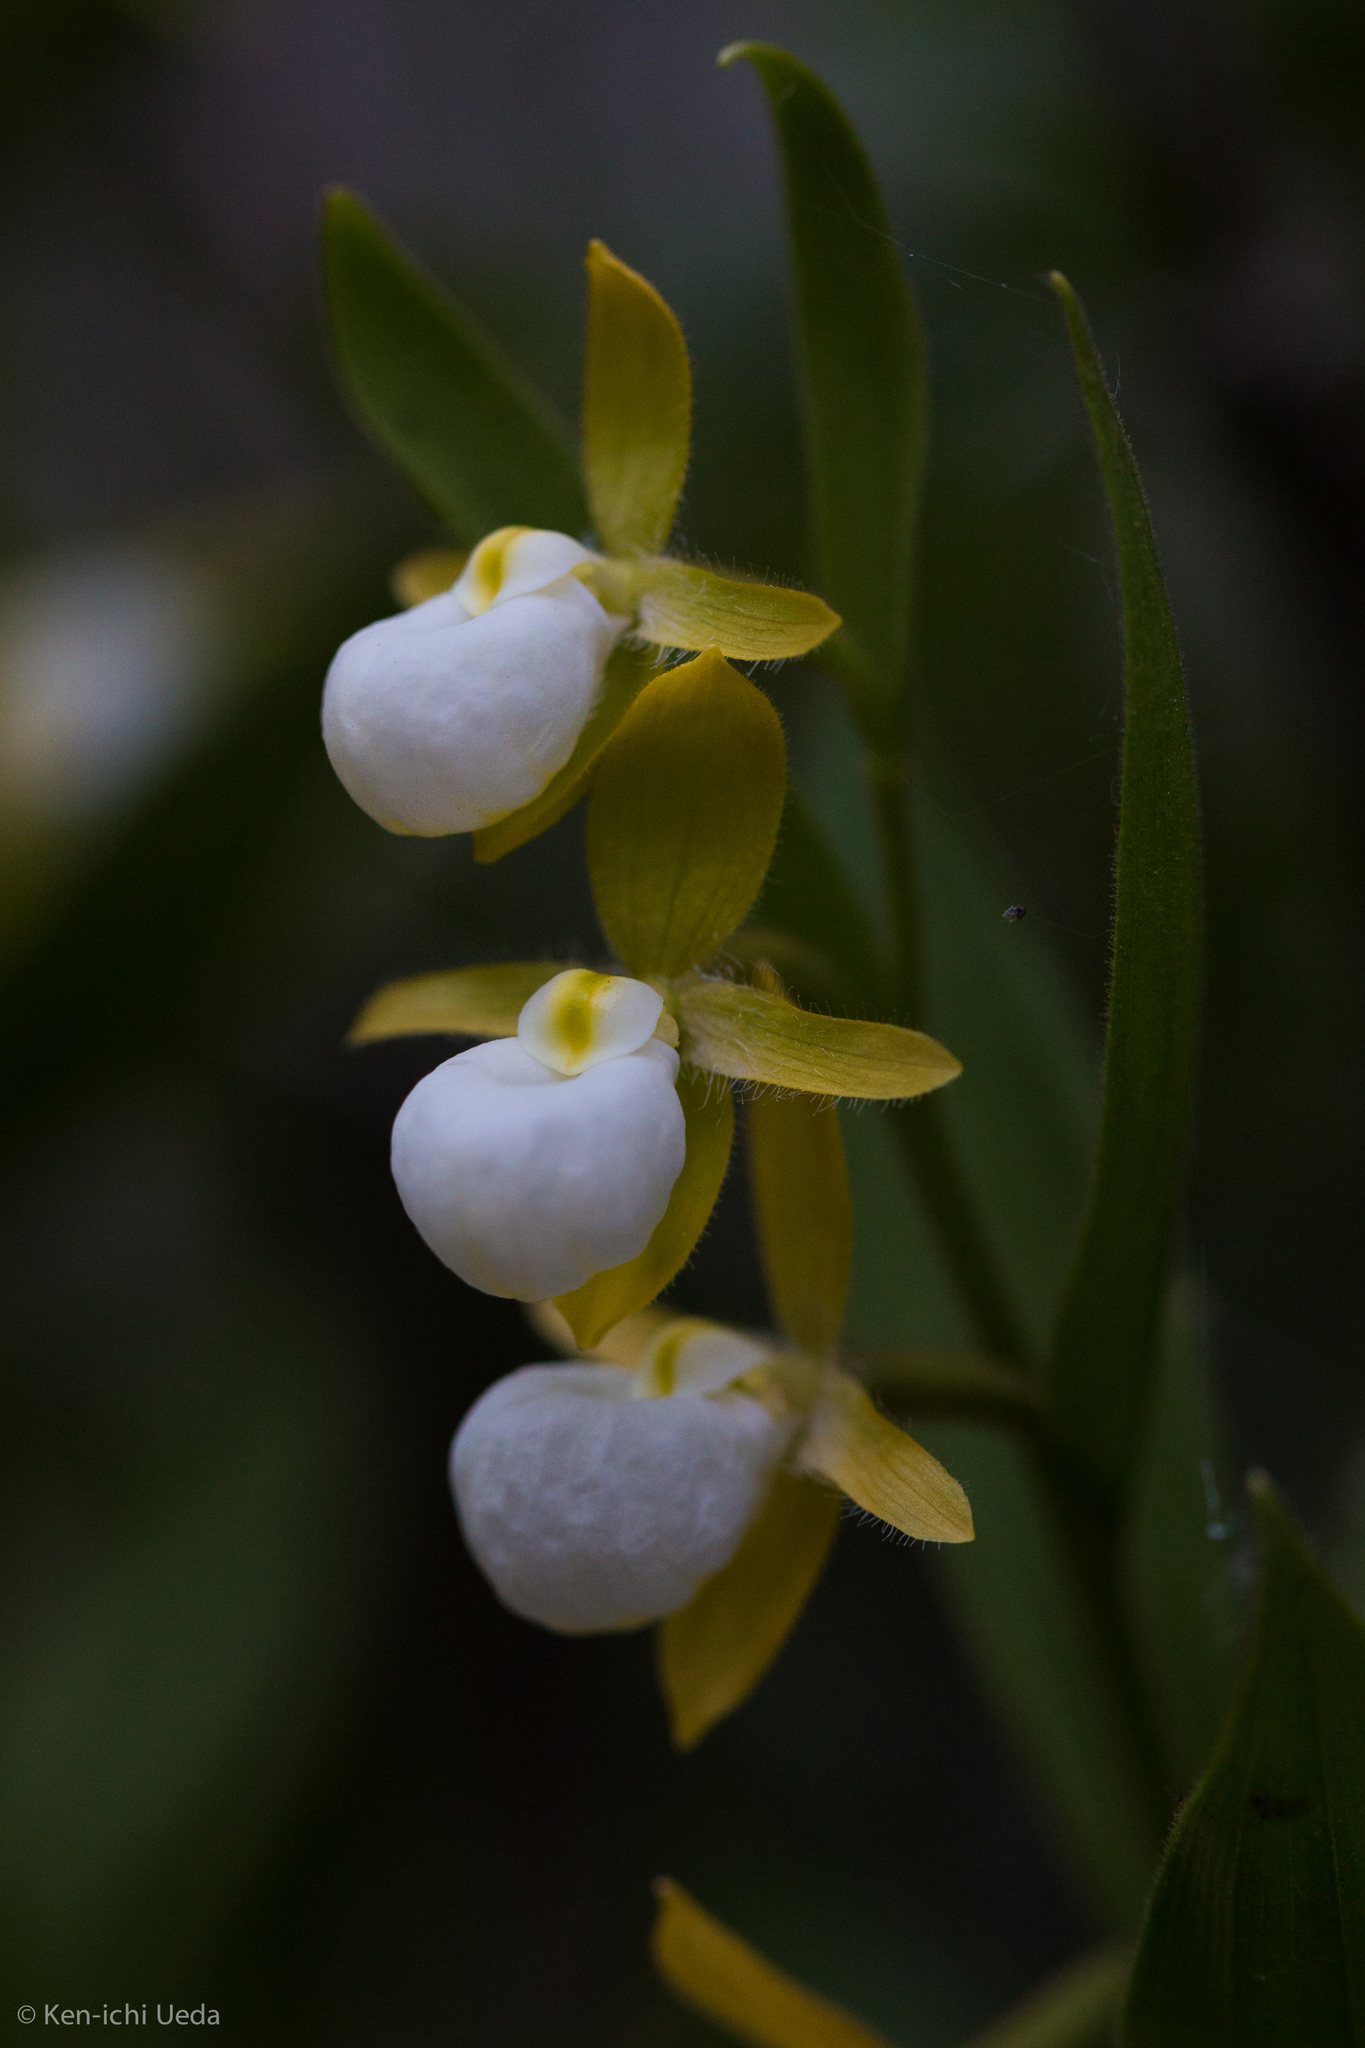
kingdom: Plantae
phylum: Tracheophyta
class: Liliopsida
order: Asparagales
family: Orchidaceae
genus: Cypripedium
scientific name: Cypripedium californicum
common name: California lady's slipper
